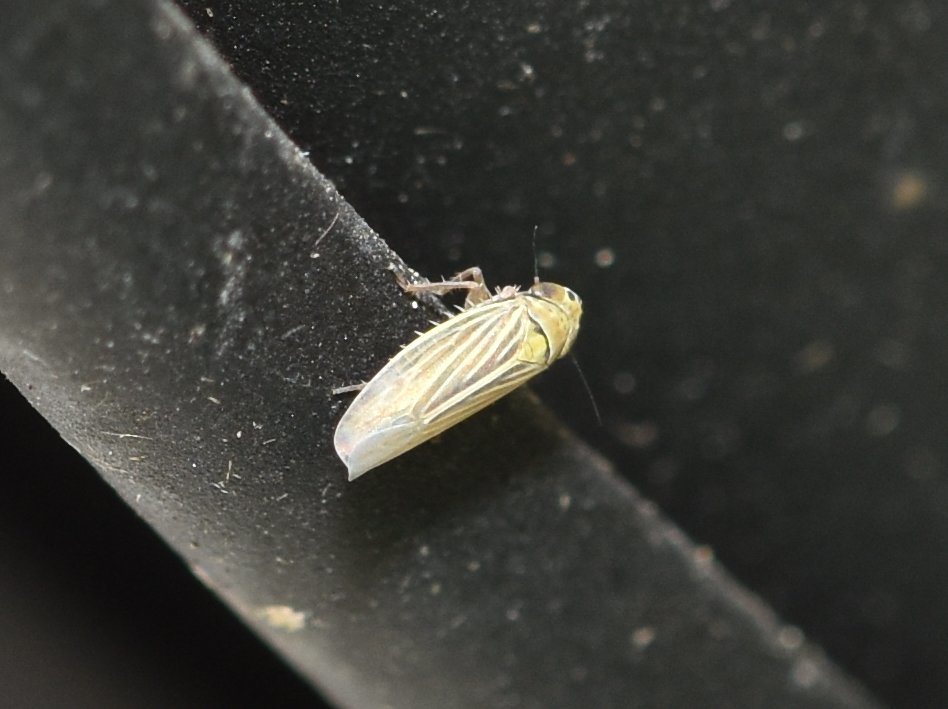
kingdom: Animalia
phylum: Arthropoda
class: Insecta
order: Hemiptera
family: Cicadellidae
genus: Graminella
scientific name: Graminella cognita
